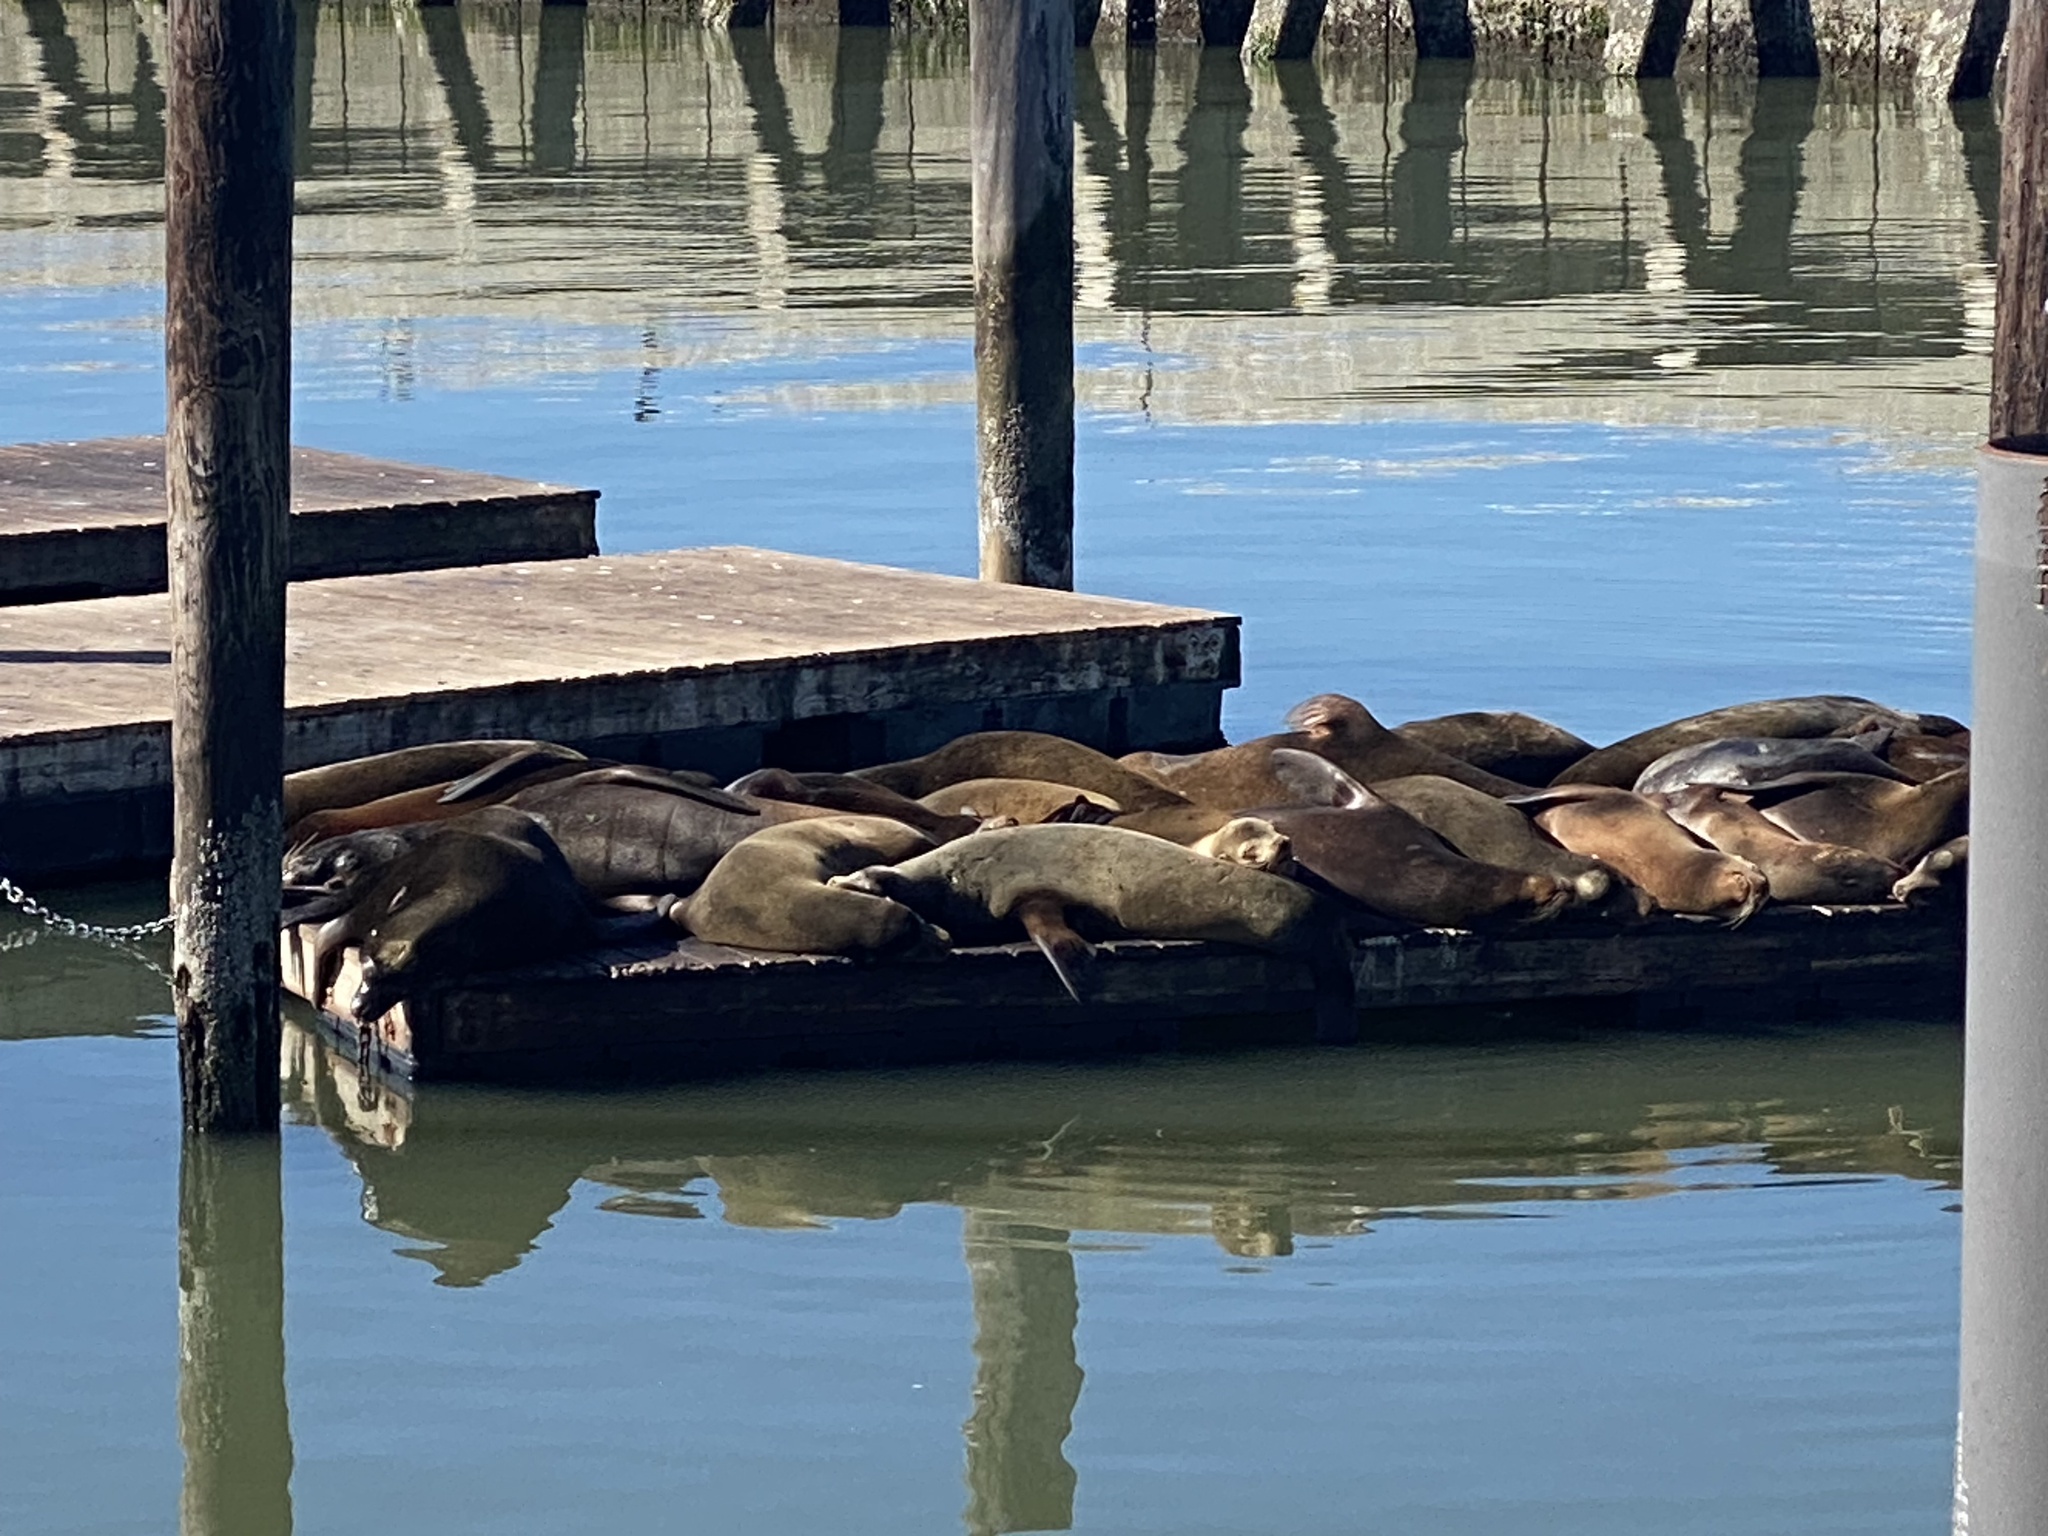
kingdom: Animalia
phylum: Chordata
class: Mammalia
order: Carnivora
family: Otariidae
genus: Zalophus
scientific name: Zalophus californianus
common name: California sea lion
